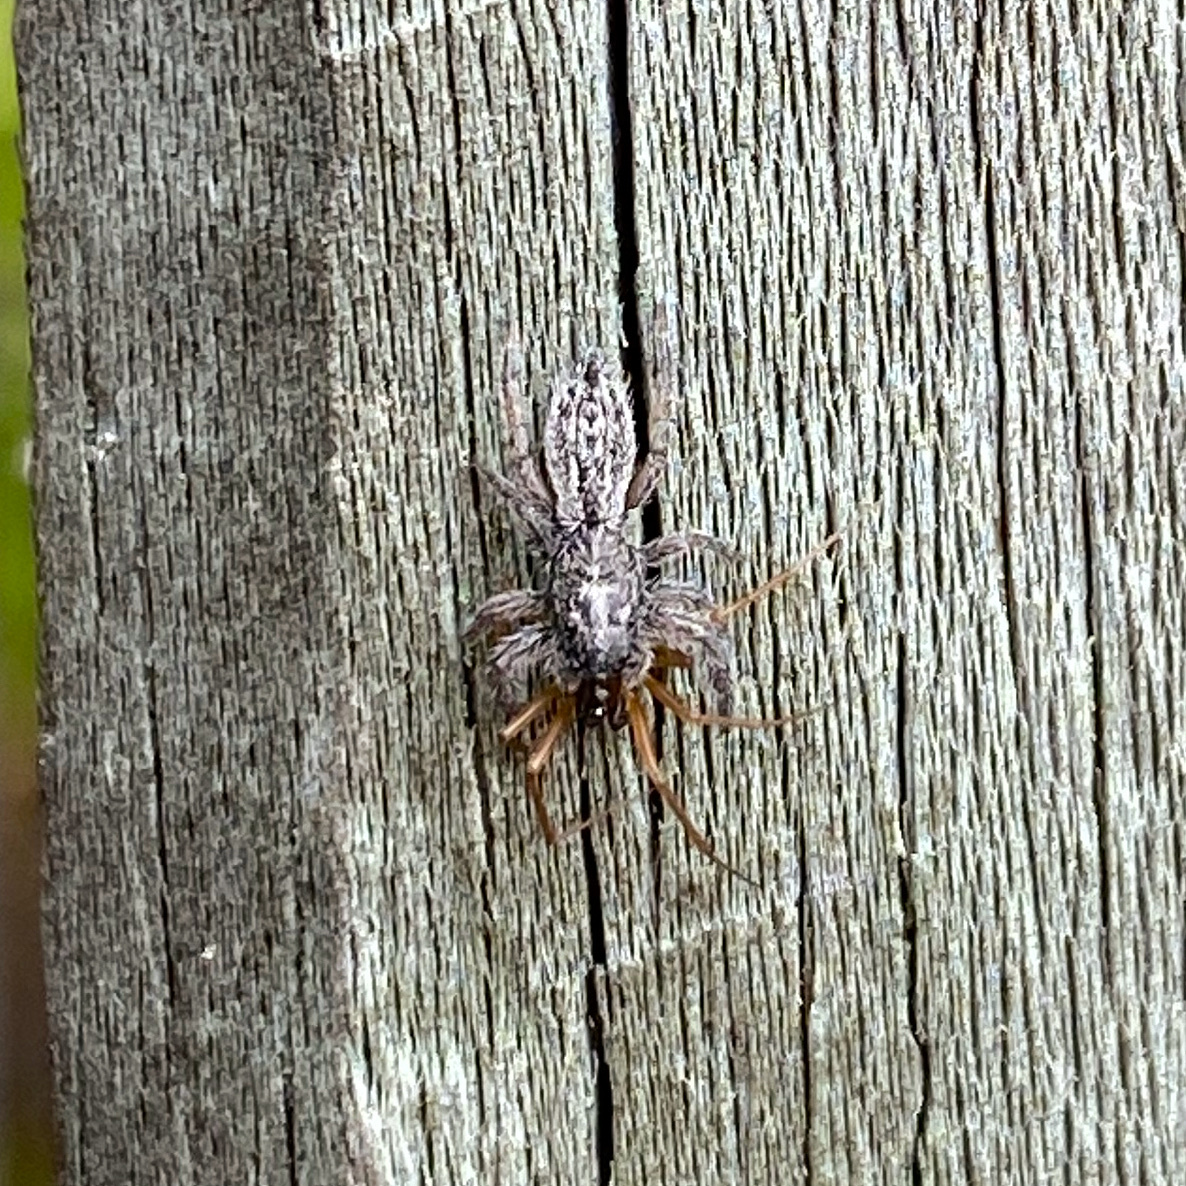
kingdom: Animalia
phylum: Arthropoda
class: Arachnida
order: Araneae
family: Salticidae
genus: Holoplatys
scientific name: Holoplatys apressus
